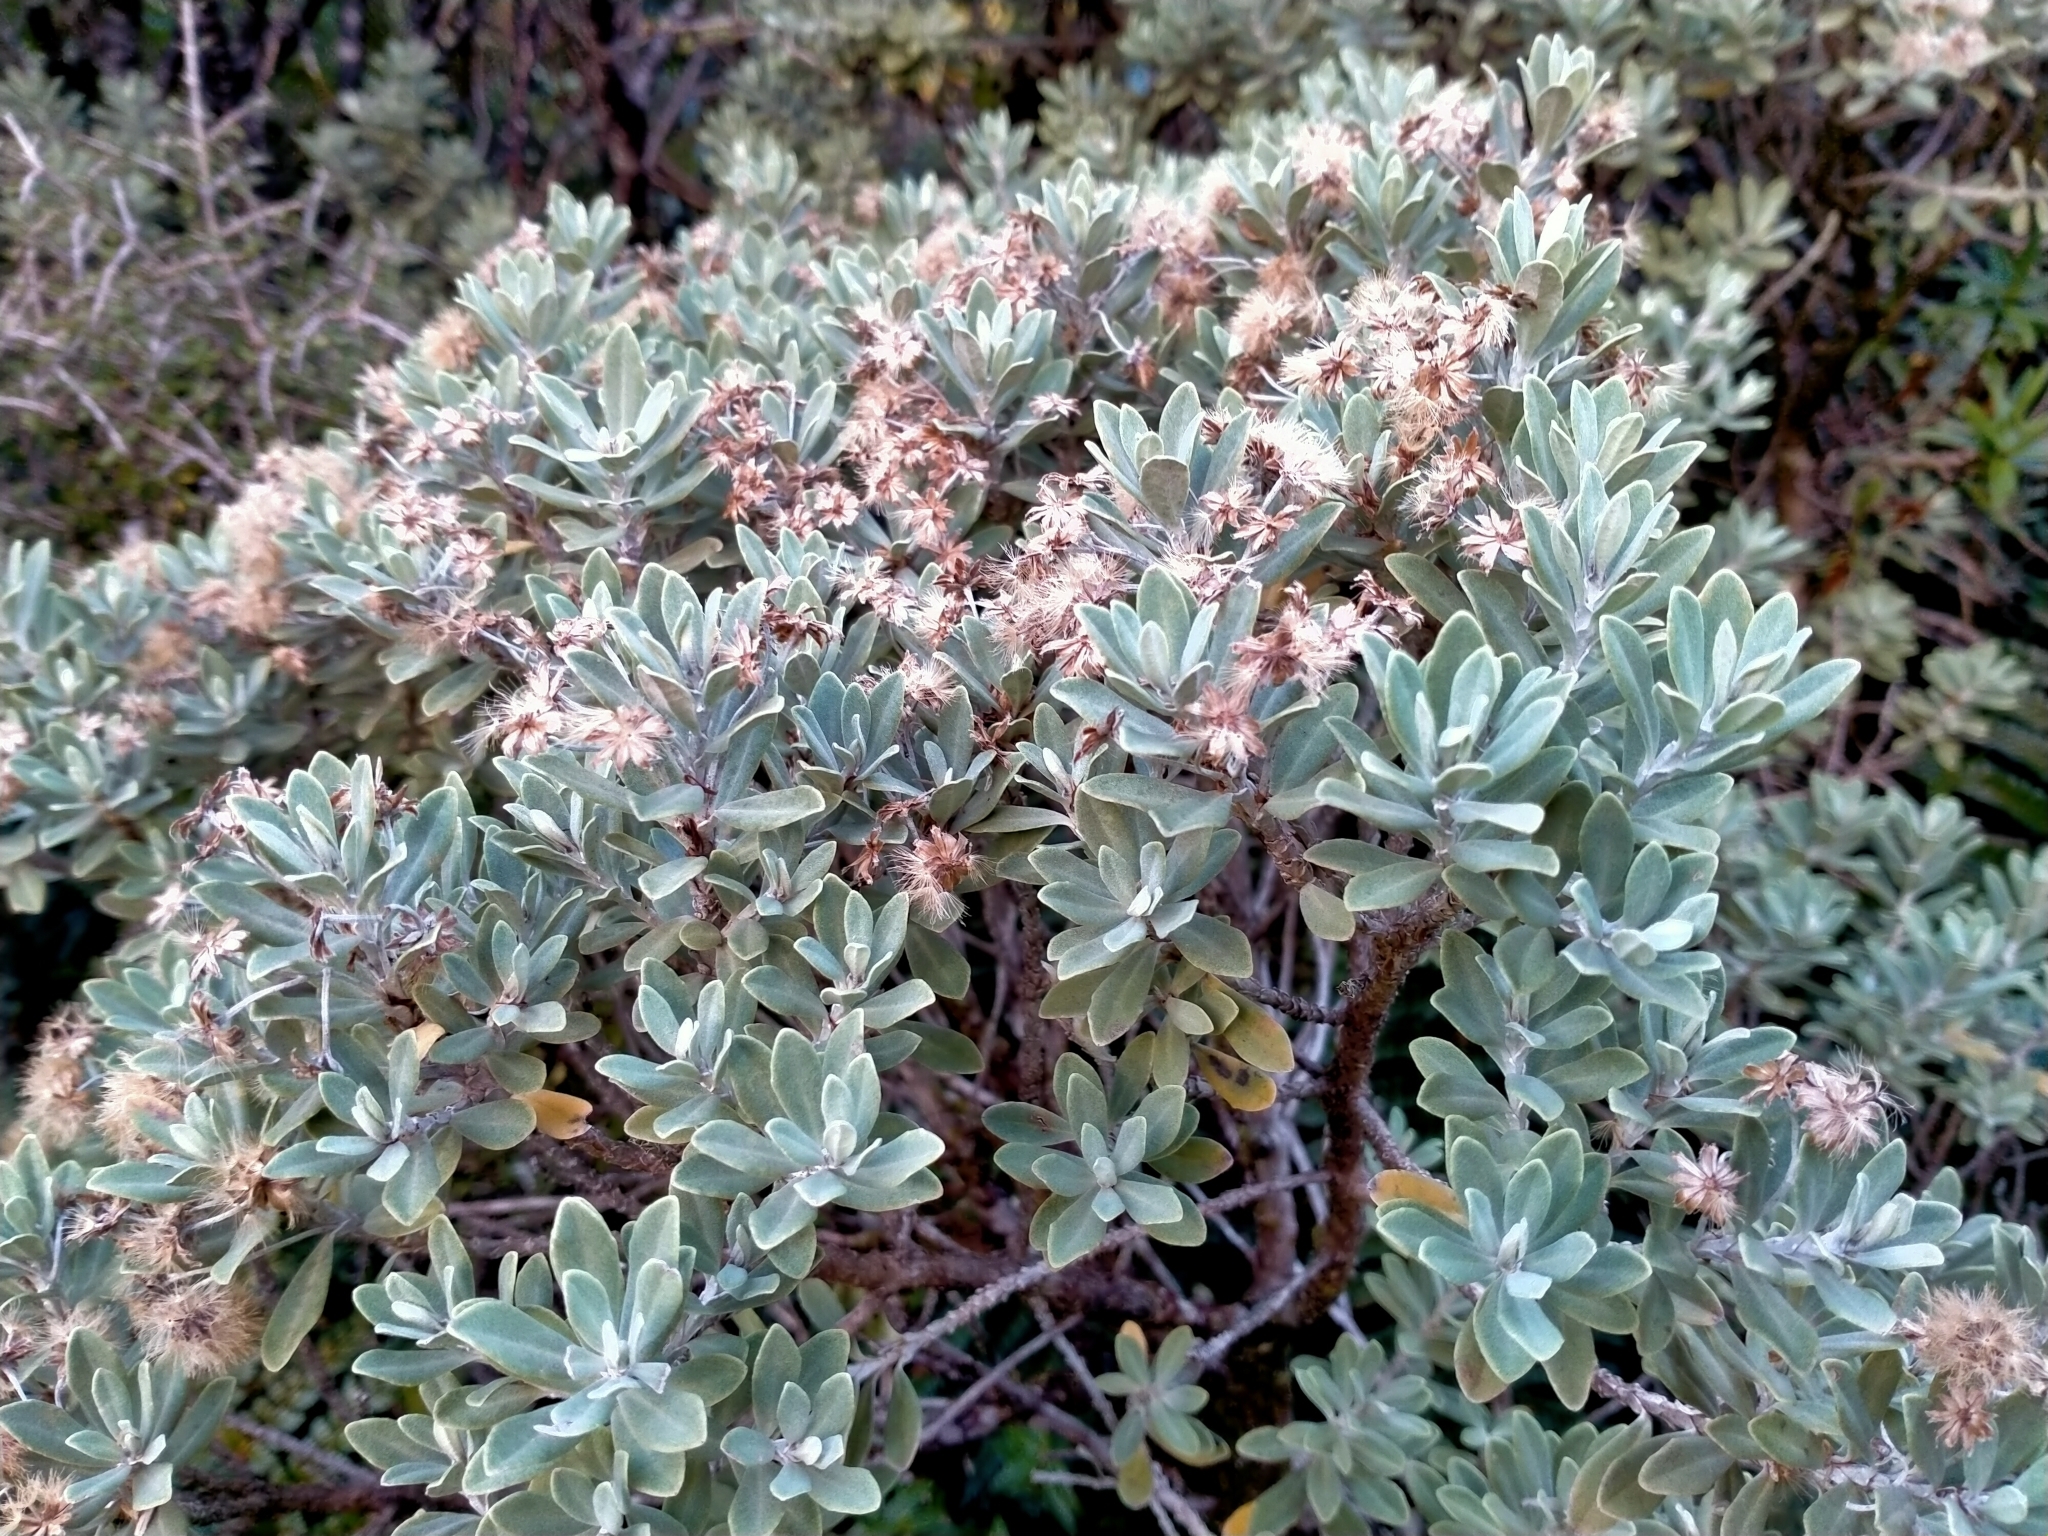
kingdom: Plantae
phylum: Tracheophyta
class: Magnoliopsida
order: Asterales
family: Asteraceae
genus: Olearia
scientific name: Olearia moschata
